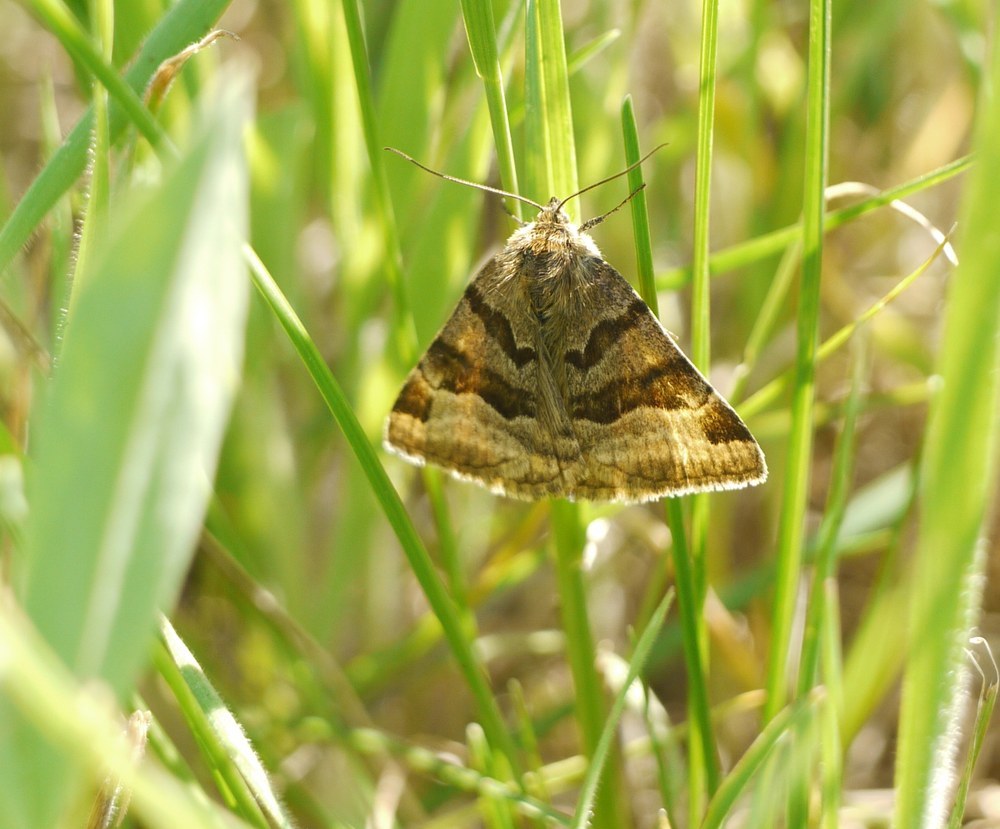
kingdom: Animalia
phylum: Arthropoda
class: Insecta
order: Lepidoptera
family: Erebidae
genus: Euclidia
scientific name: Euclidia glyphica
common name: Burnet companion
